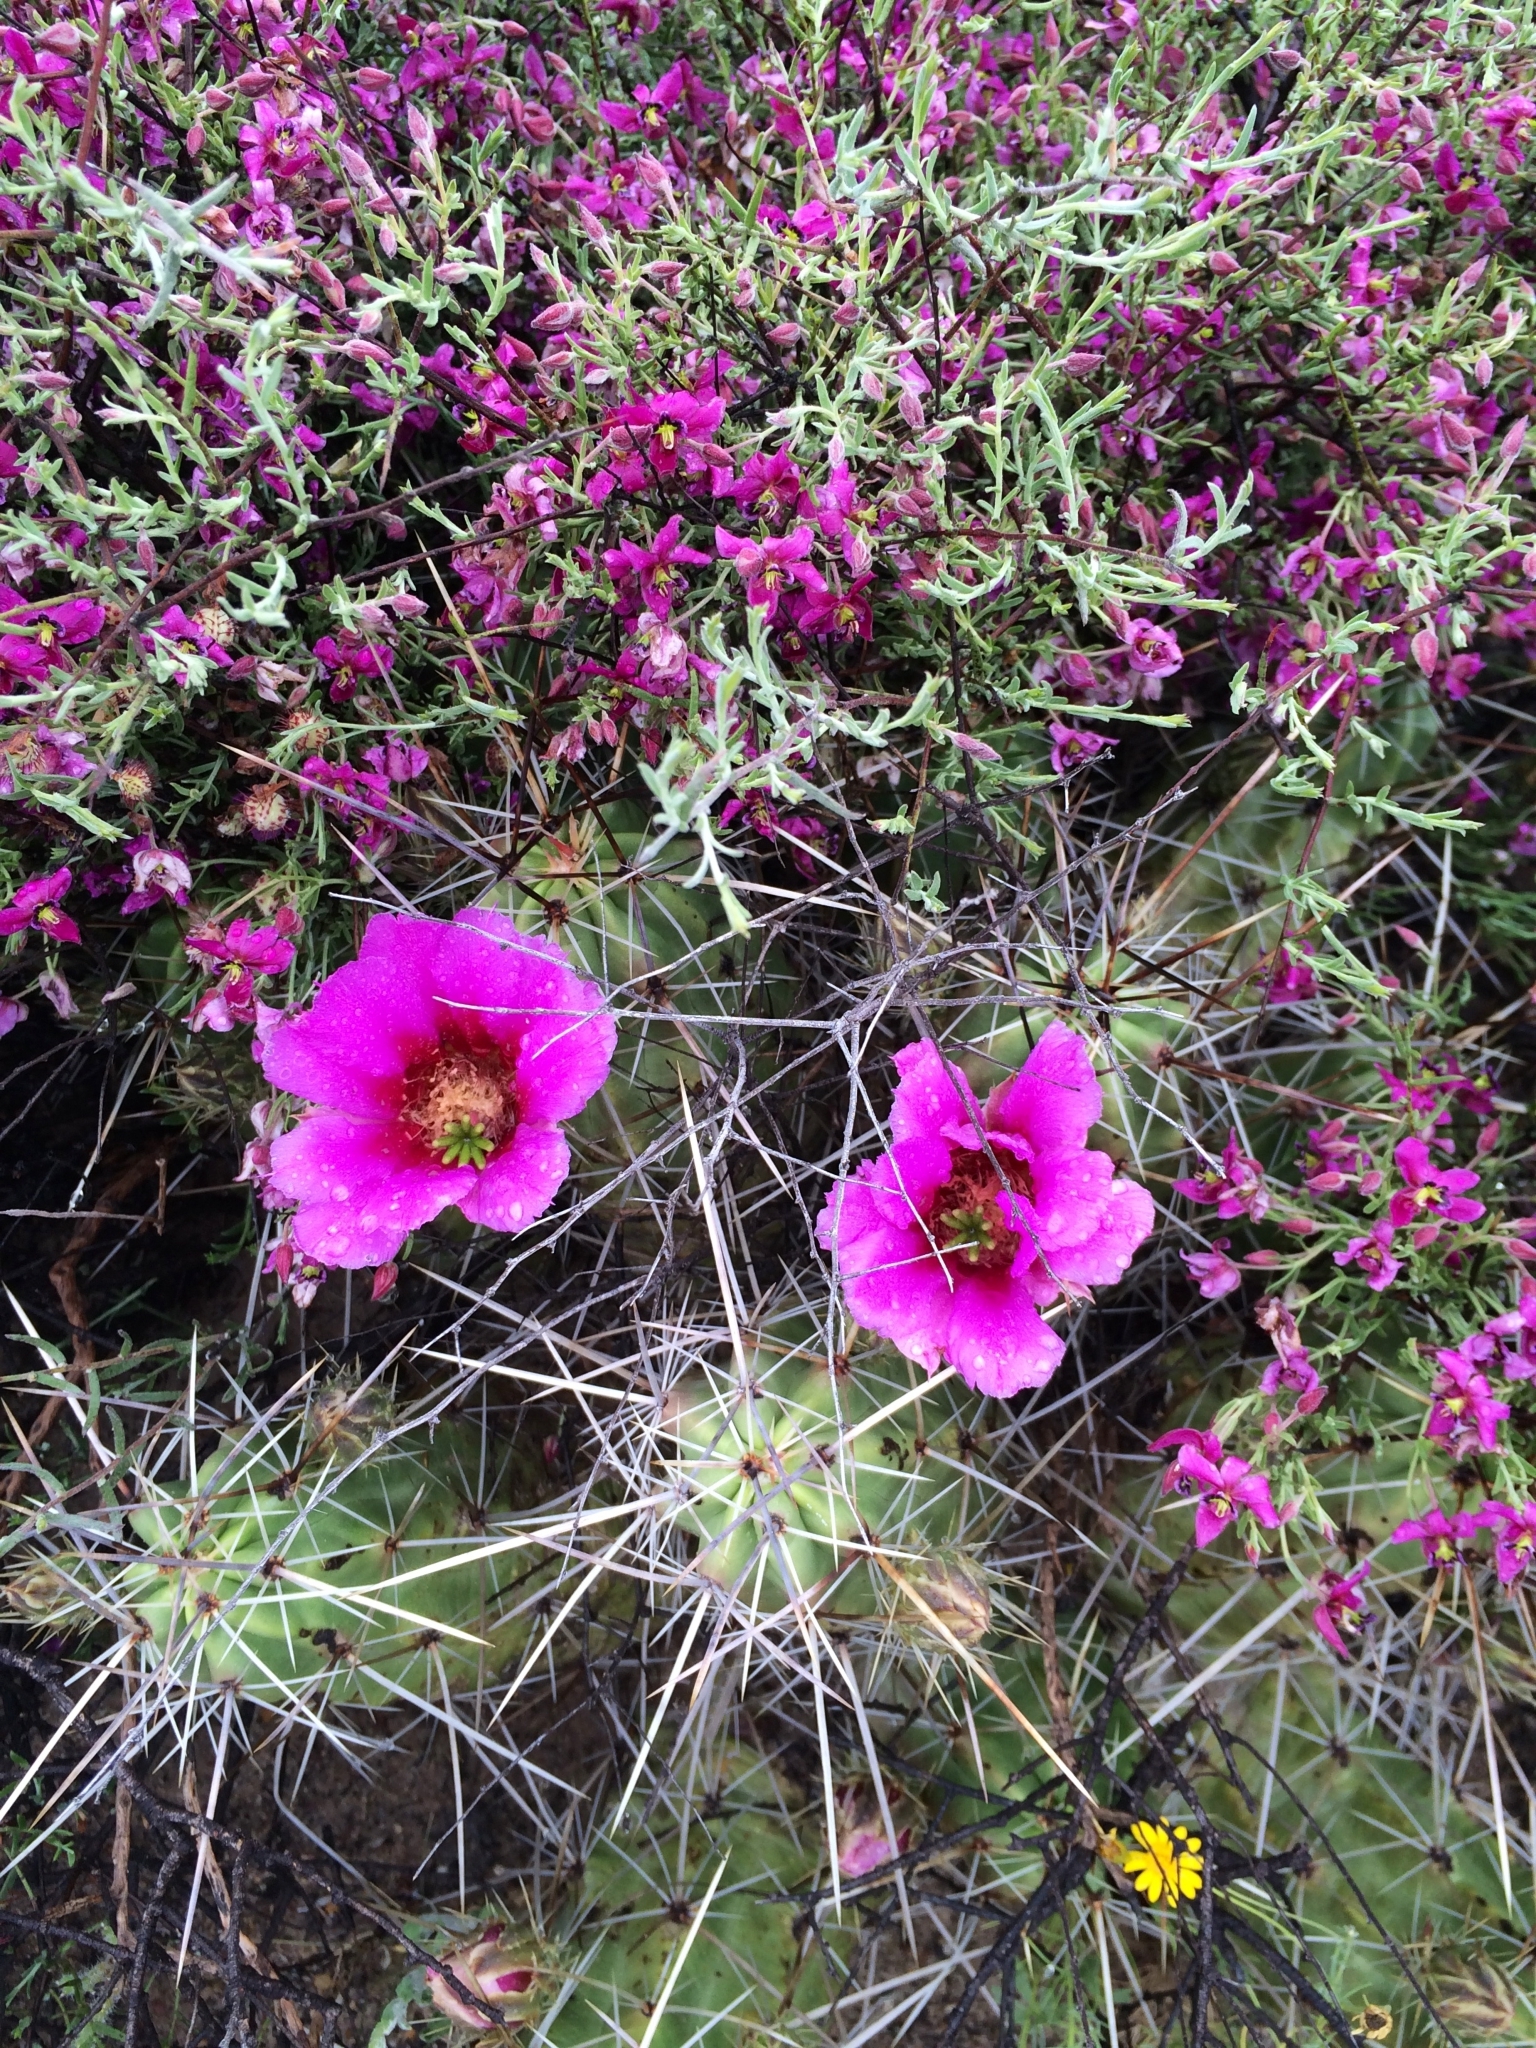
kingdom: Plantae
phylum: Tracheophyta
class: Magnoliopsida
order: Caryophyllales
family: Cactaceae
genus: Echinocereus
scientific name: Echinocereus enneacanthus
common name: Pitaya
